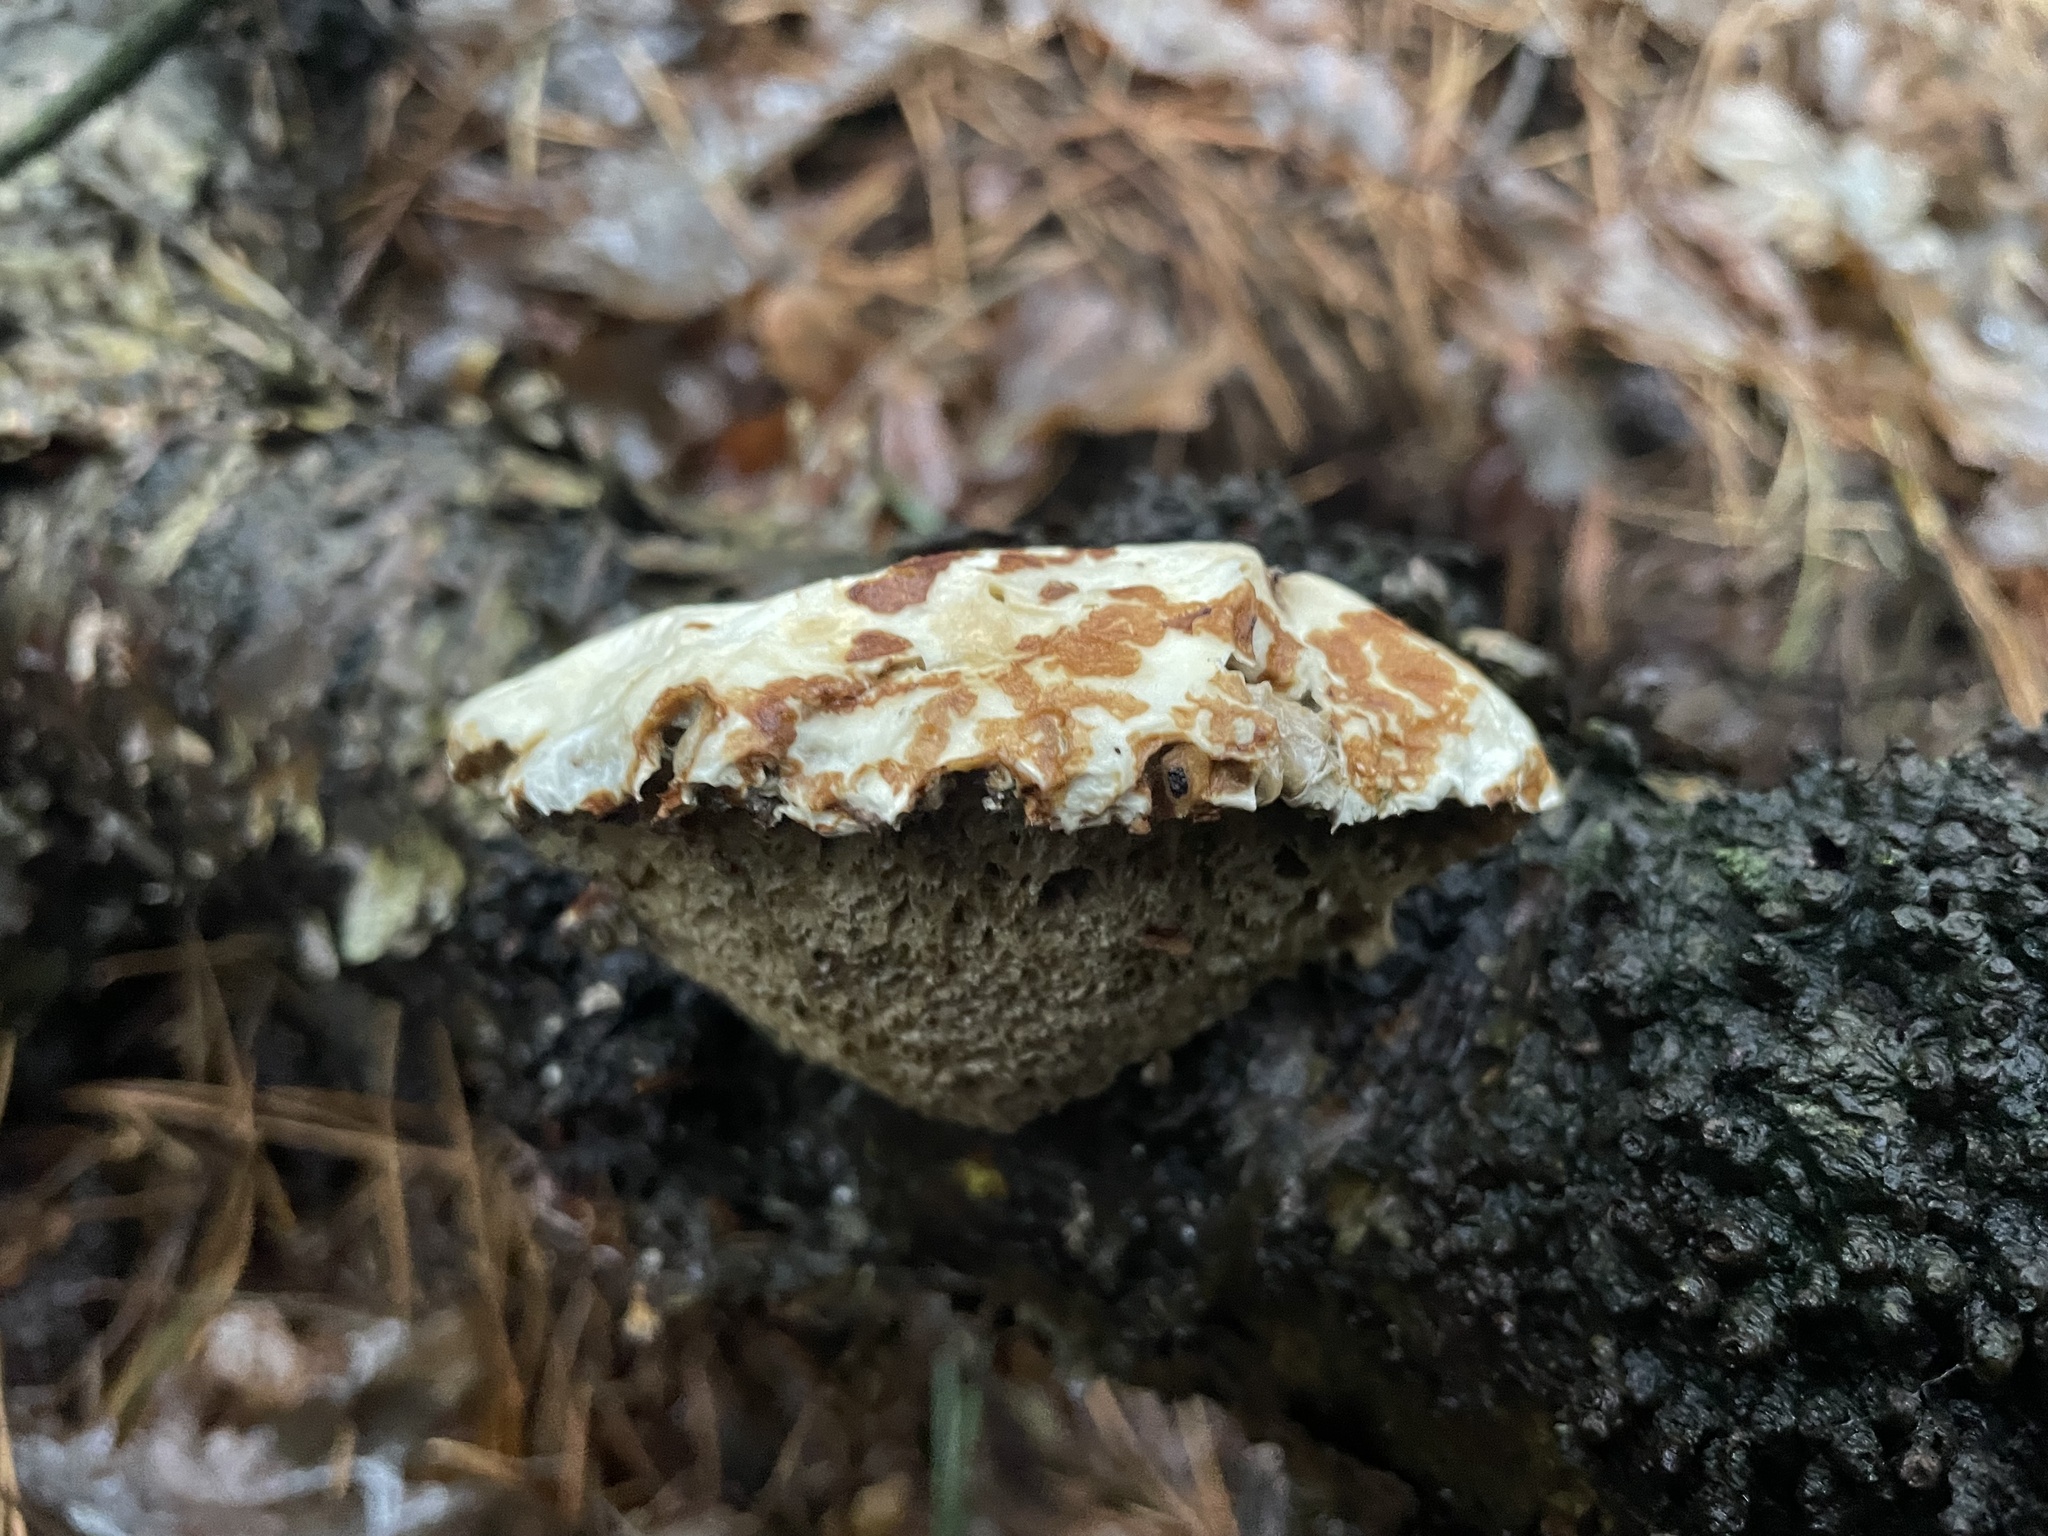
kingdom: Fungi
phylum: Basidiomycota
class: Agaricomycetes
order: Polyporales
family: Fomitopsidaceae
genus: Fomitopsis
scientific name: Fomitopsis betulina
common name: Birch polypore
